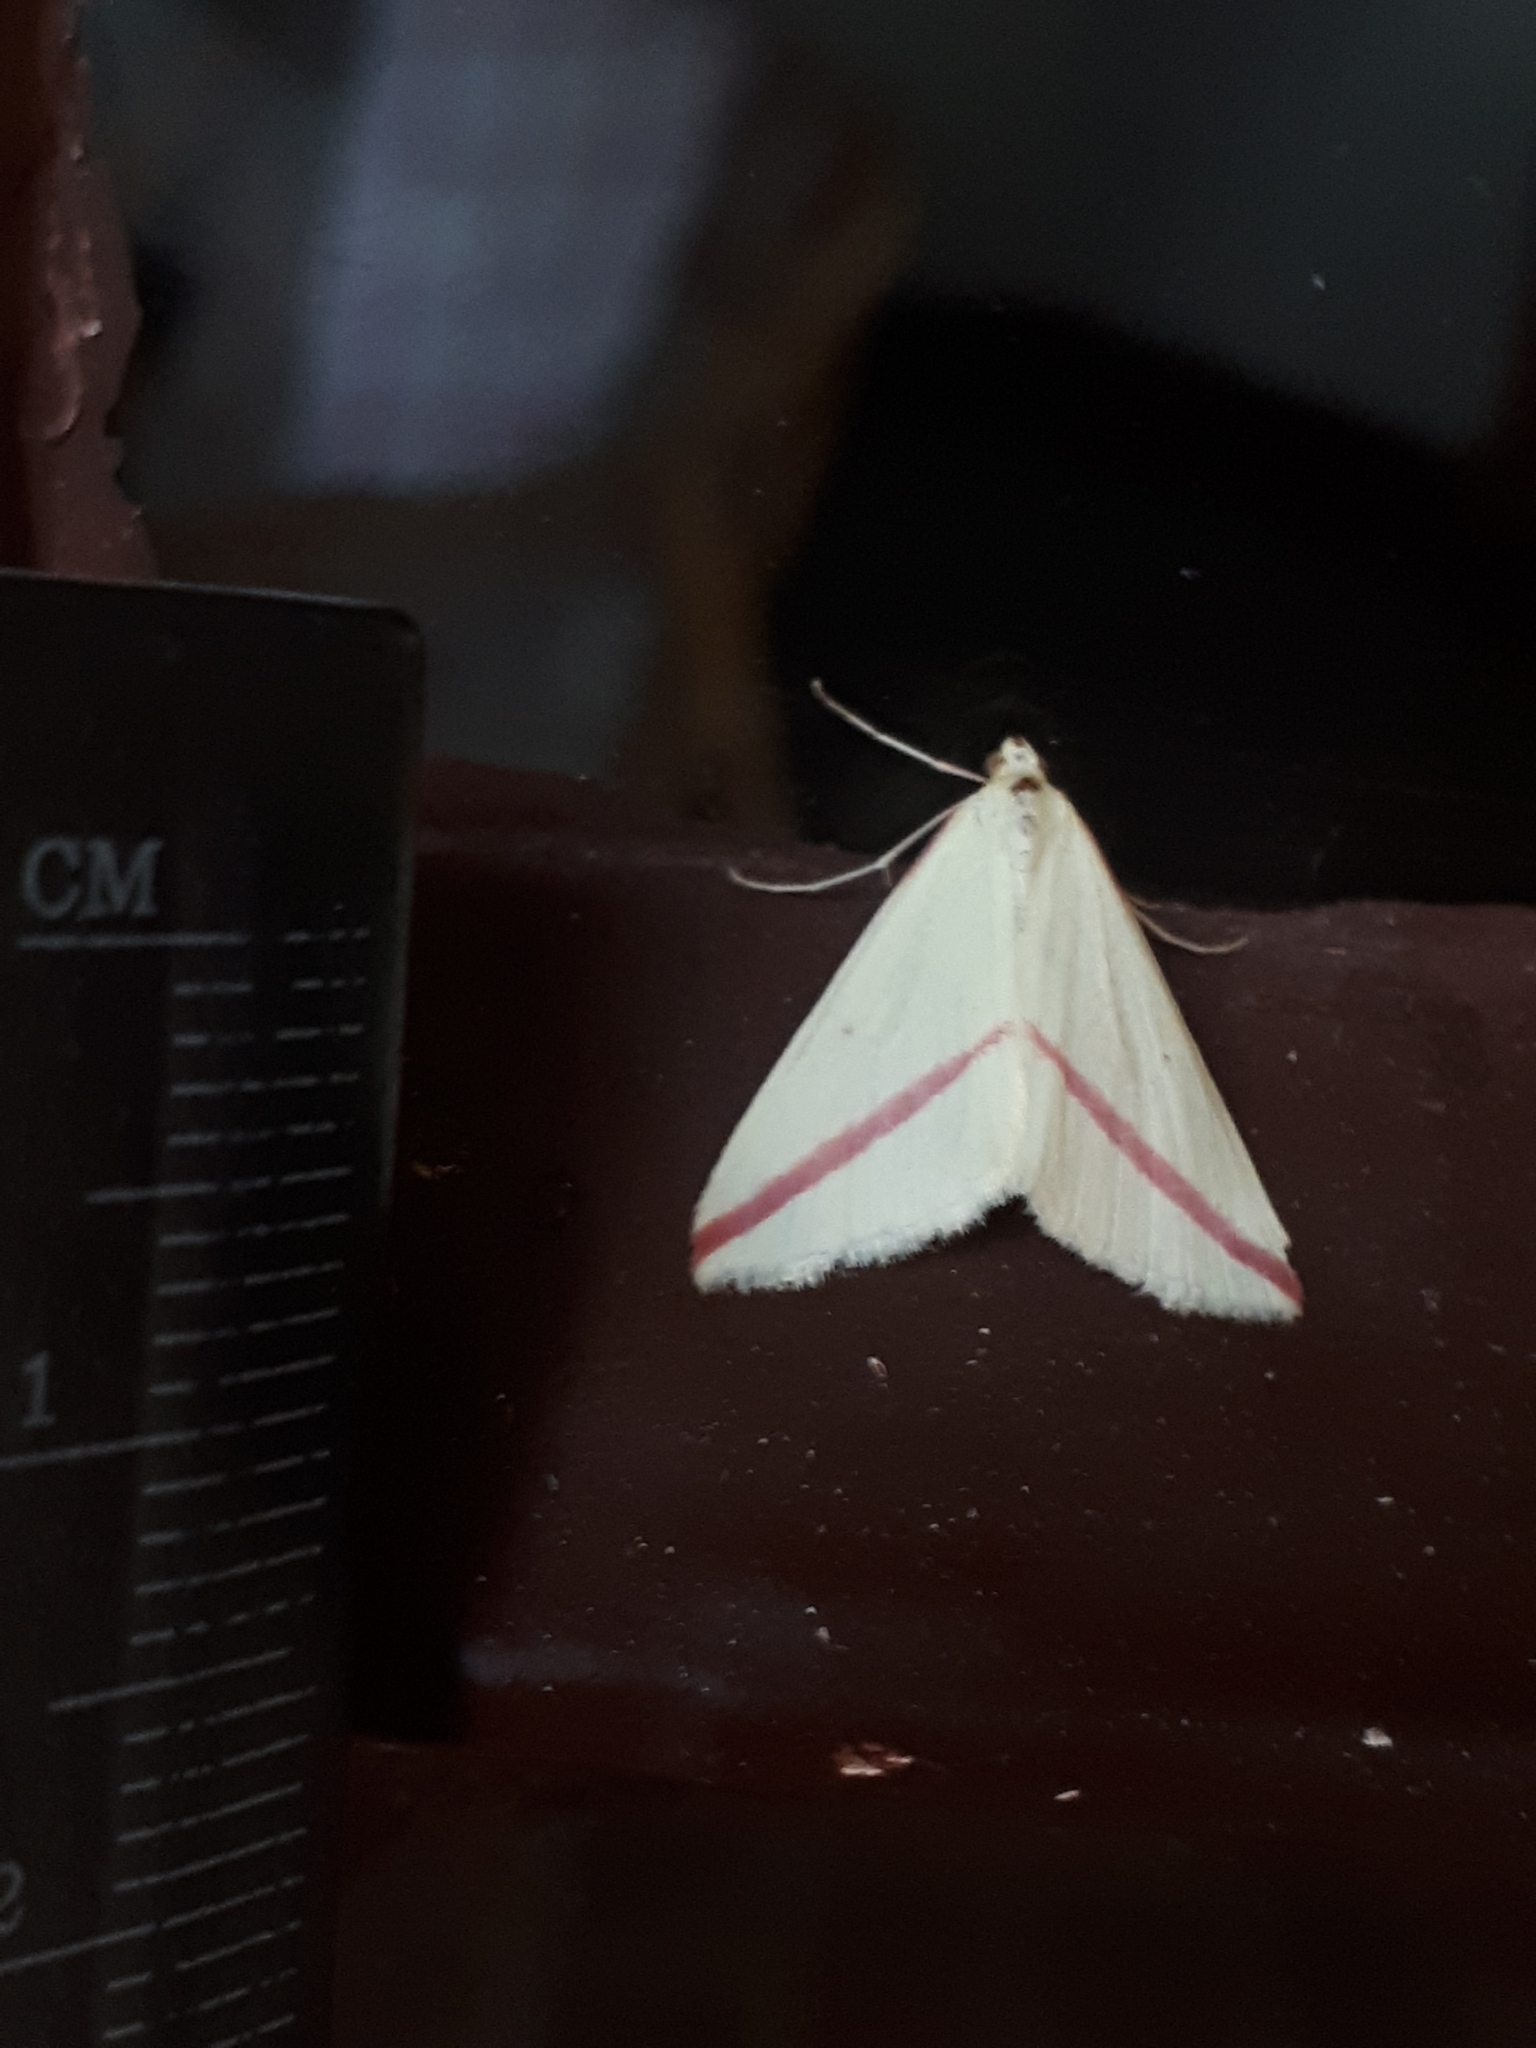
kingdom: Animalia
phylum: Arthropoda
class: Insecta
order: Lepidoptera
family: Geometridae
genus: Rhodometra
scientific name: Rhodometra sacraria
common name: Vestal
